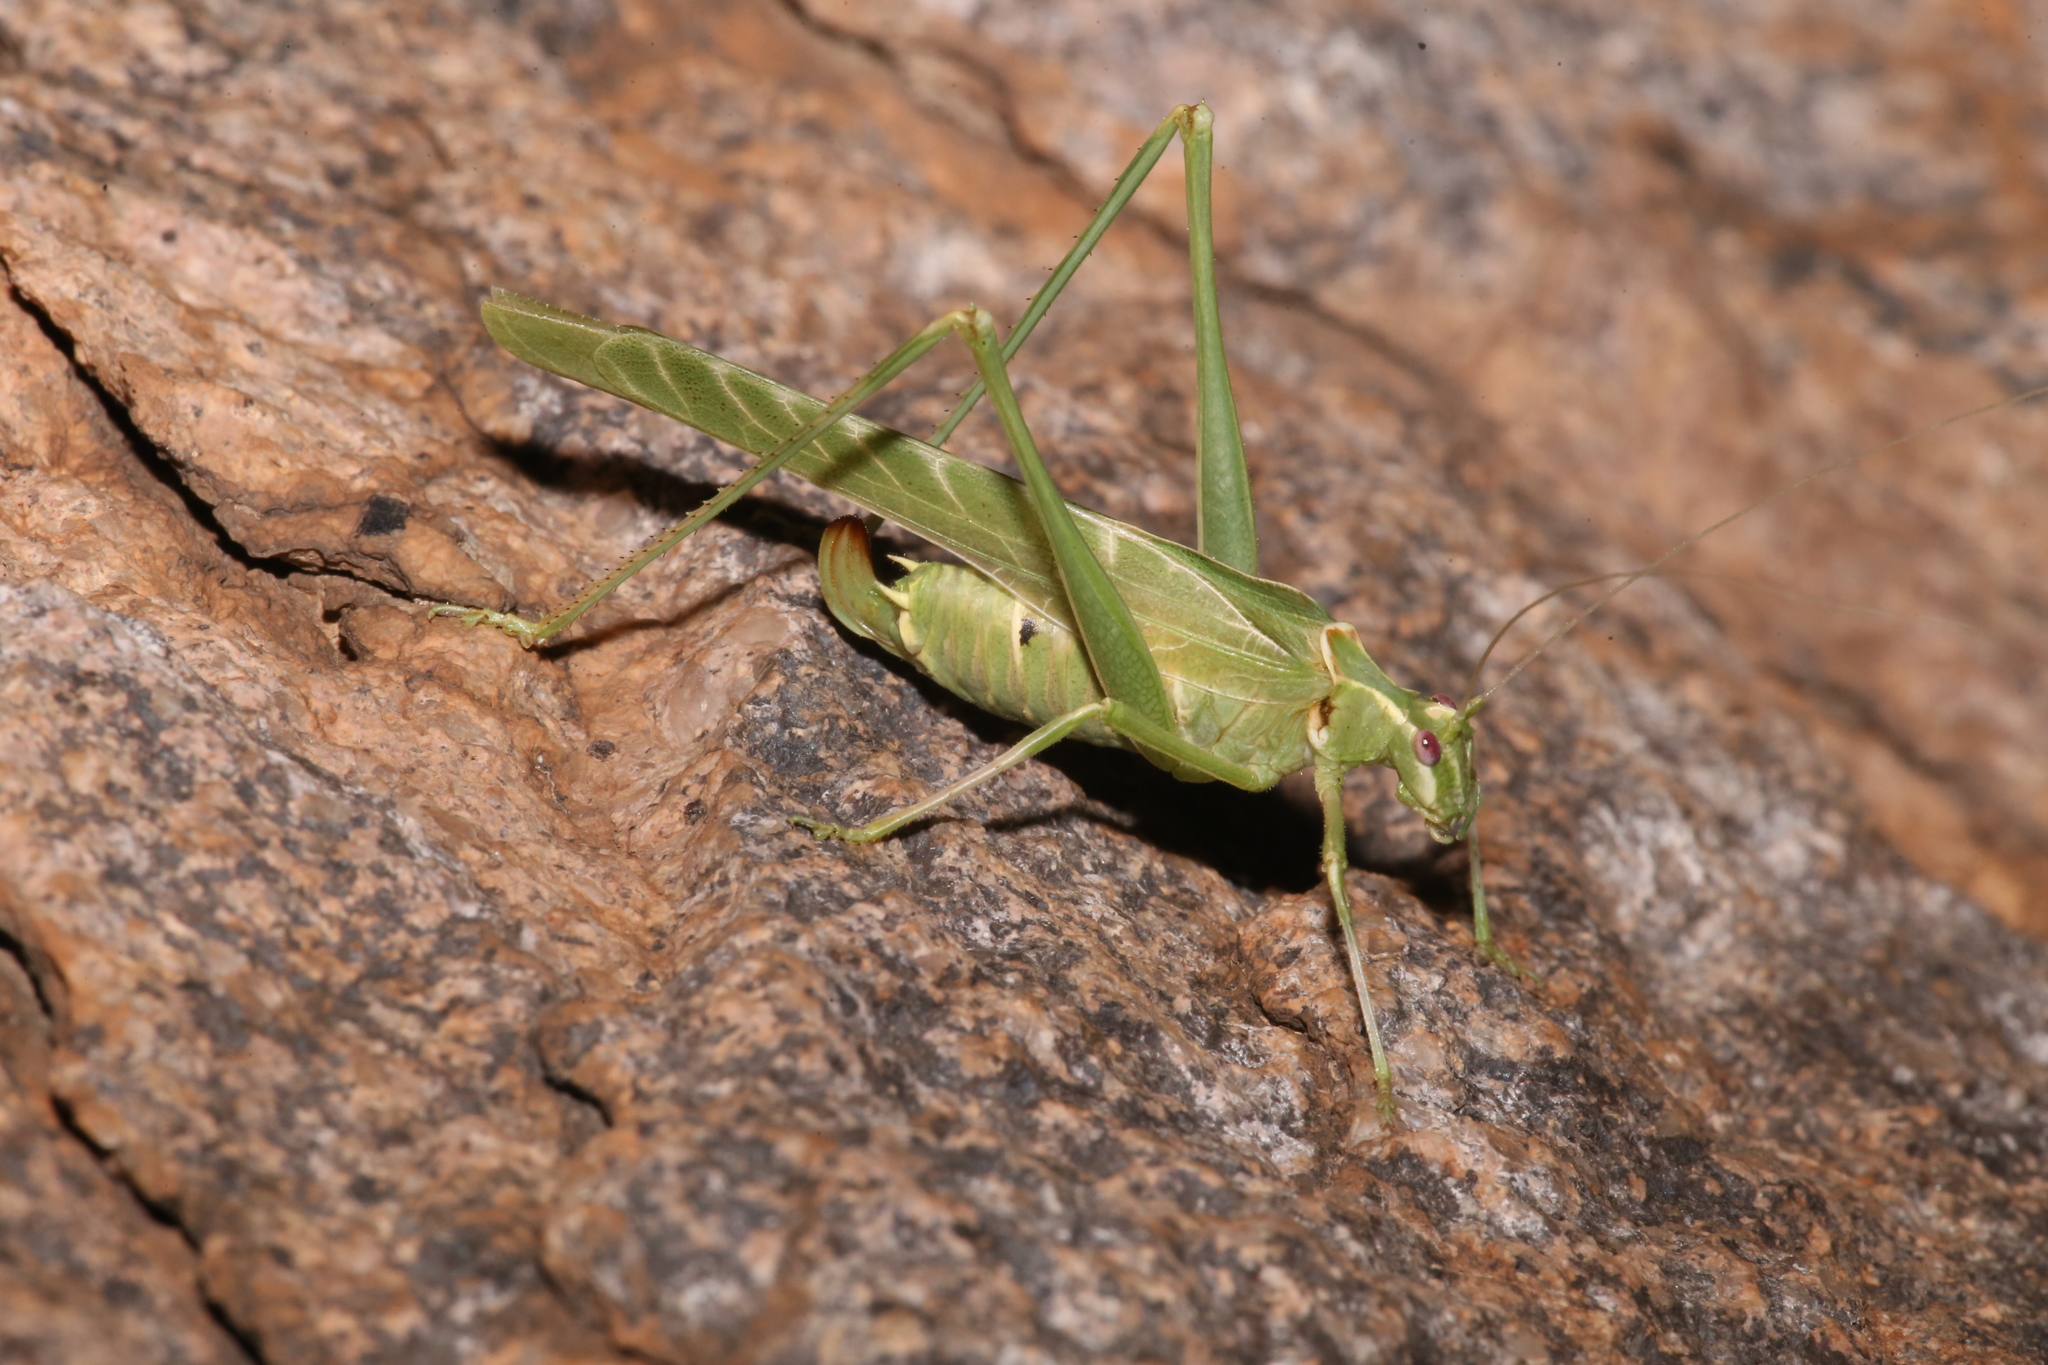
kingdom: Animalia
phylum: Arthropoda
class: Insecta
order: Orthoptera
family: Tettigoniidae
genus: Insara
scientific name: Insara elegans
